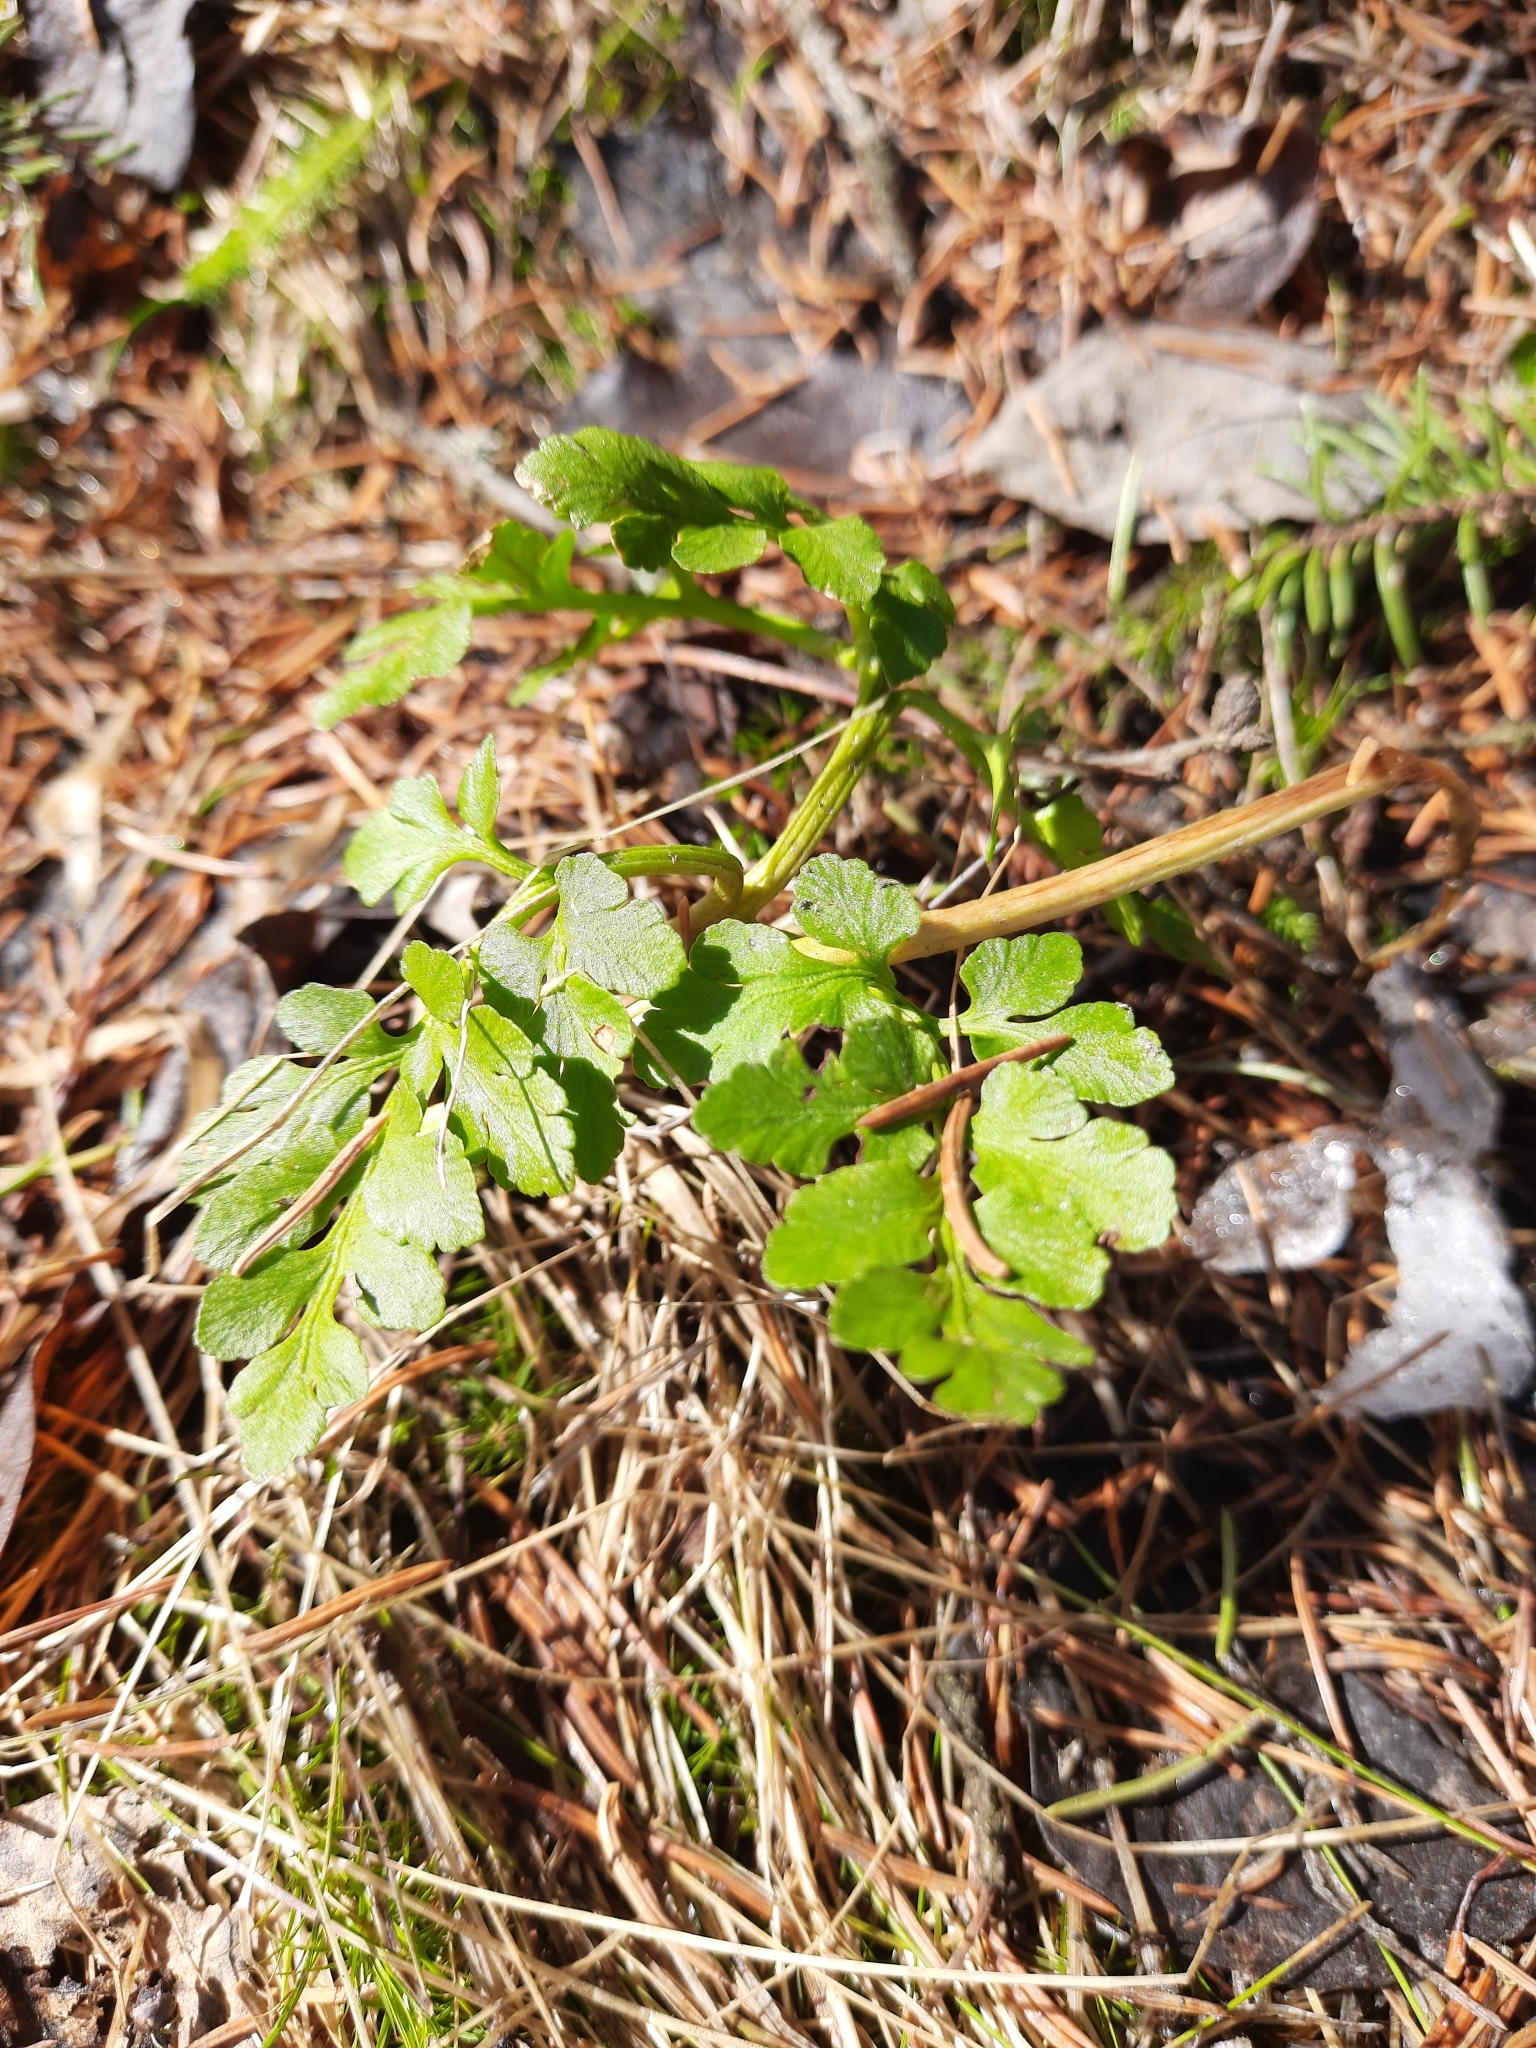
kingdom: Plantae
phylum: Tracheophyta
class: Polypodiopsida
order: Ophioglossales
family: Ophioglossaceae
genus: Sceptridium
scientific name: Sceptridium multifidum
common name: Leathery grape fern
